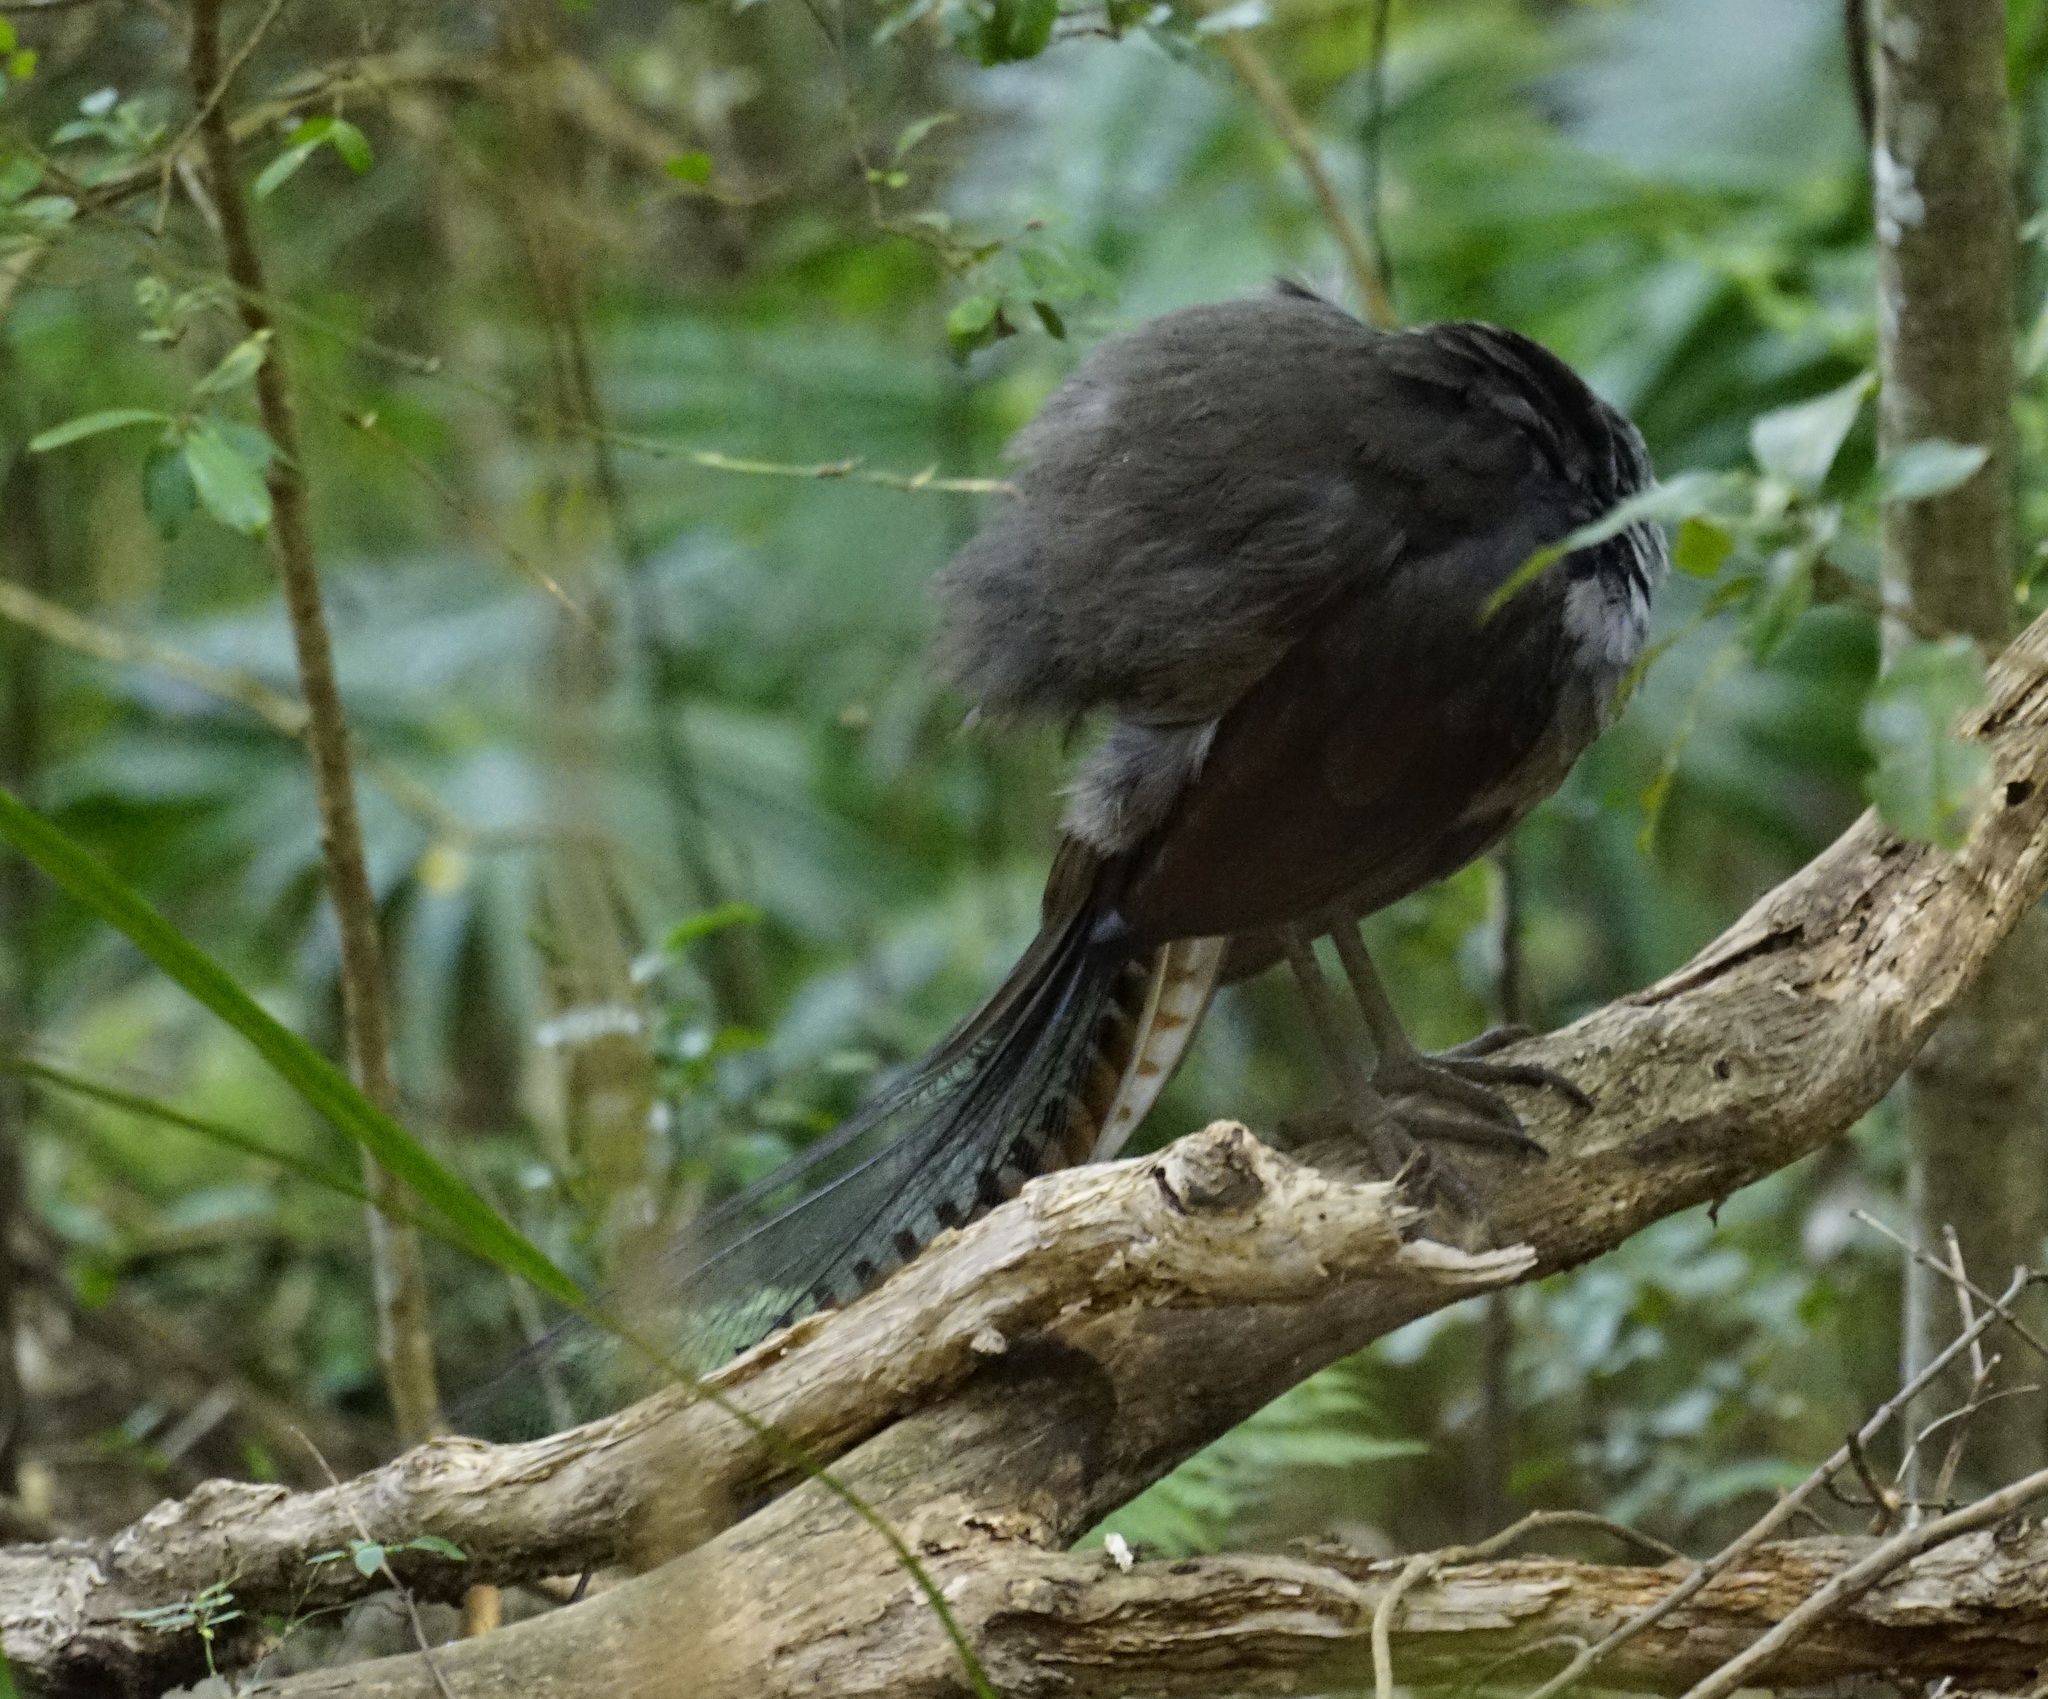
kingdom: Animalia
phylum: Chordata
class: Aves
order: Passeriformes
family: Menuridae
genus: Menura
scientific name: Menura novaehollandiae
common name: Superb lyrebird
